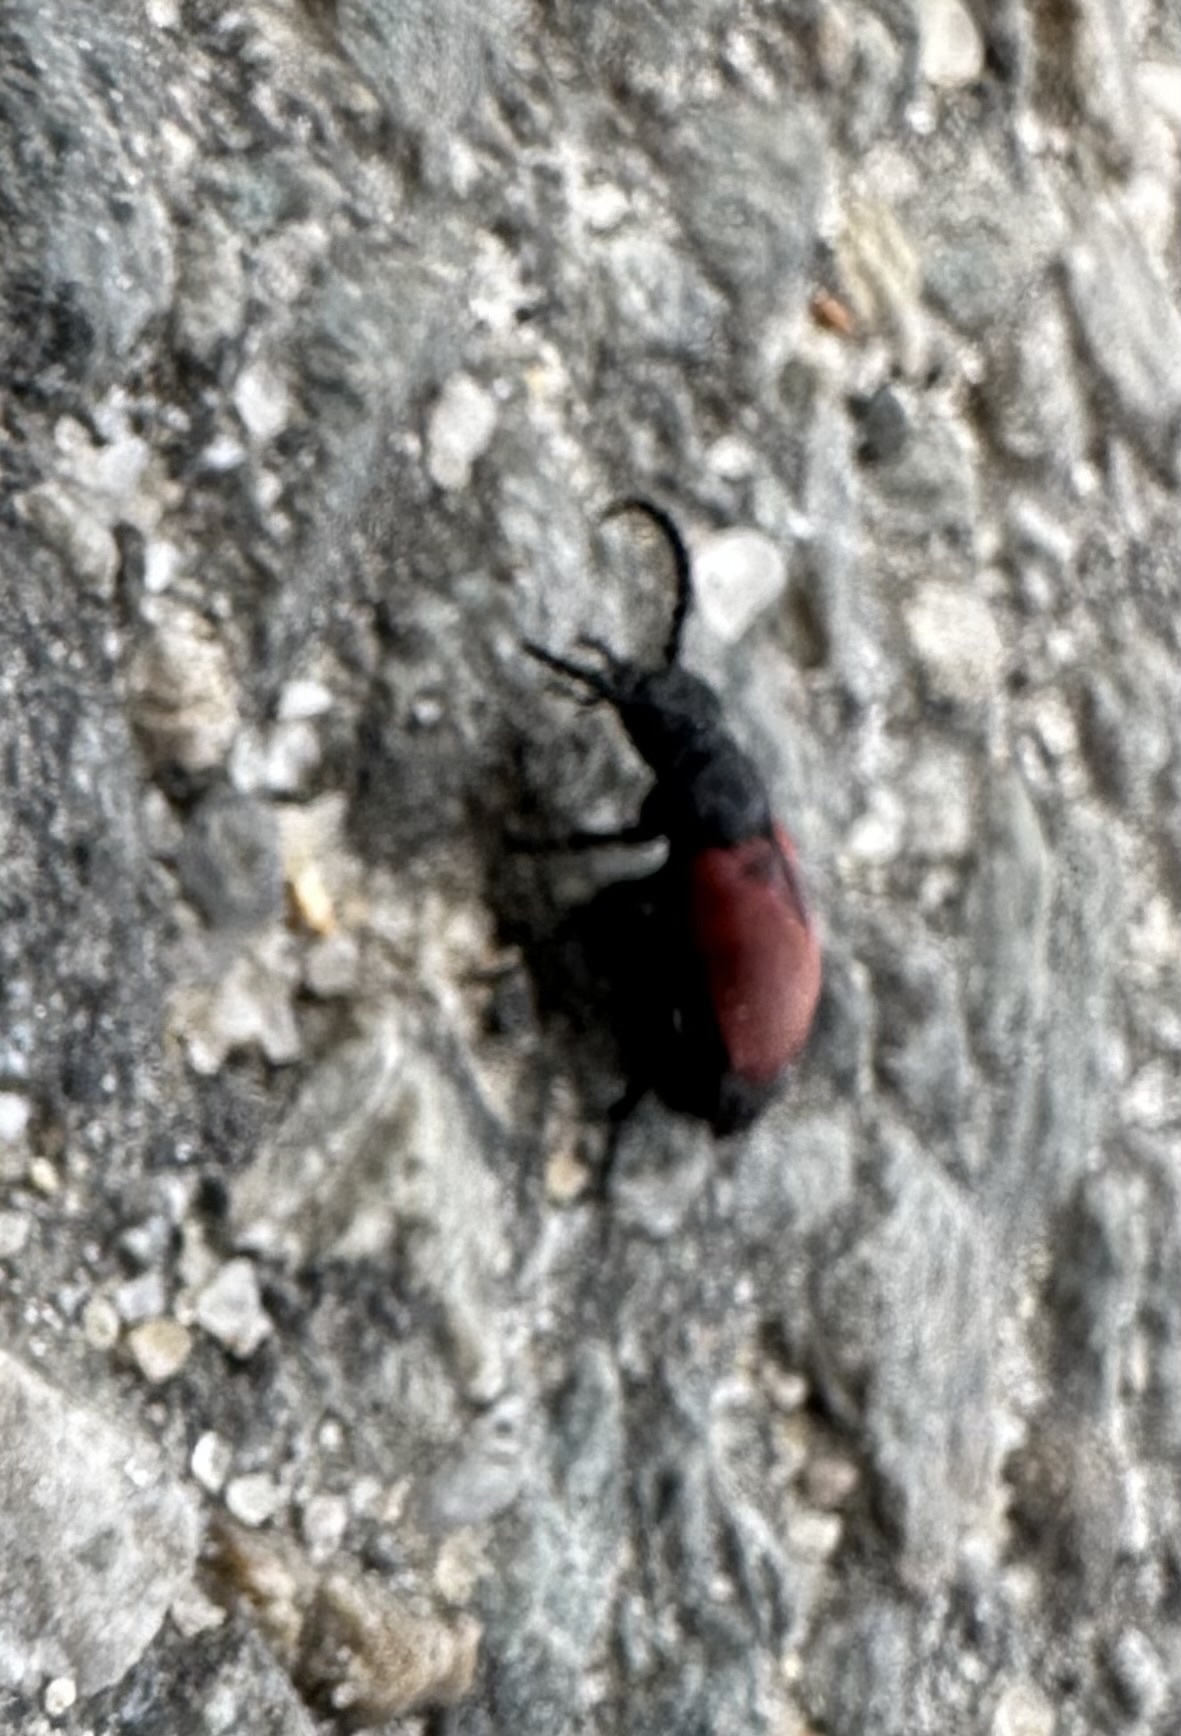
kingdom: Animalia
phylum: Arthropoda
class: Insecta
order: Coleoptera
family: Meloidae
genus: Tricrania
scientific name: Tricrania sanguinipennis
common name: Blood-winged blister beetle
